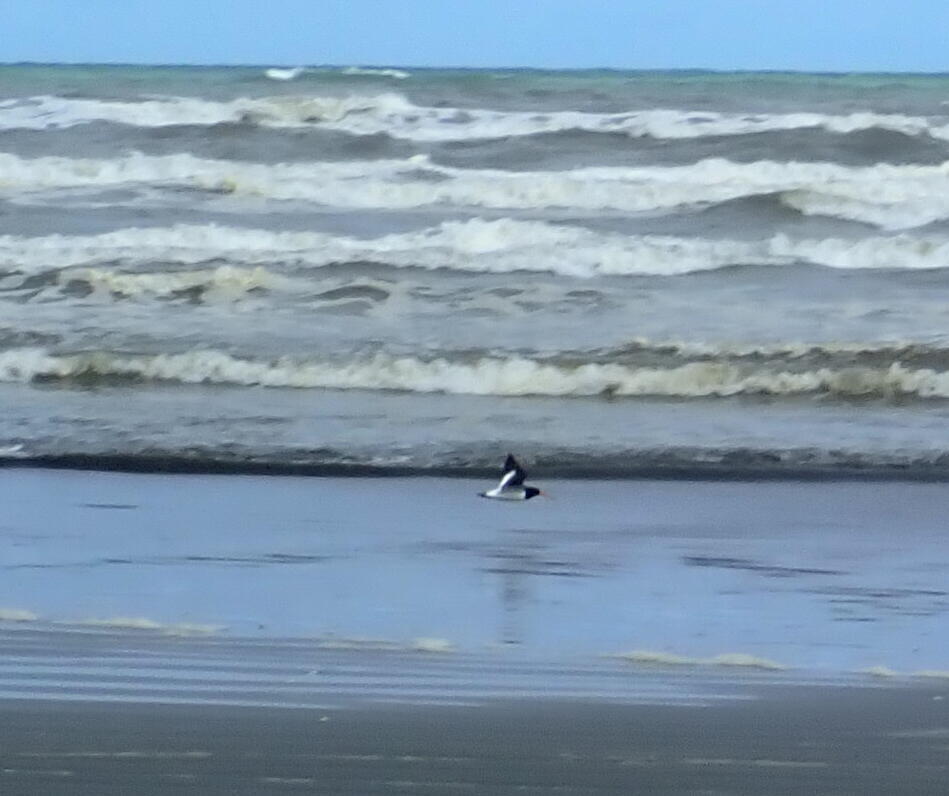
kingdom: Animalia
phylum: Chordata
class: Aves
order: Charadriiformes
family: Haematopodidae
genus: Haematopus
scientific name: Haematopus finschi
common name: South island oystercatcher
